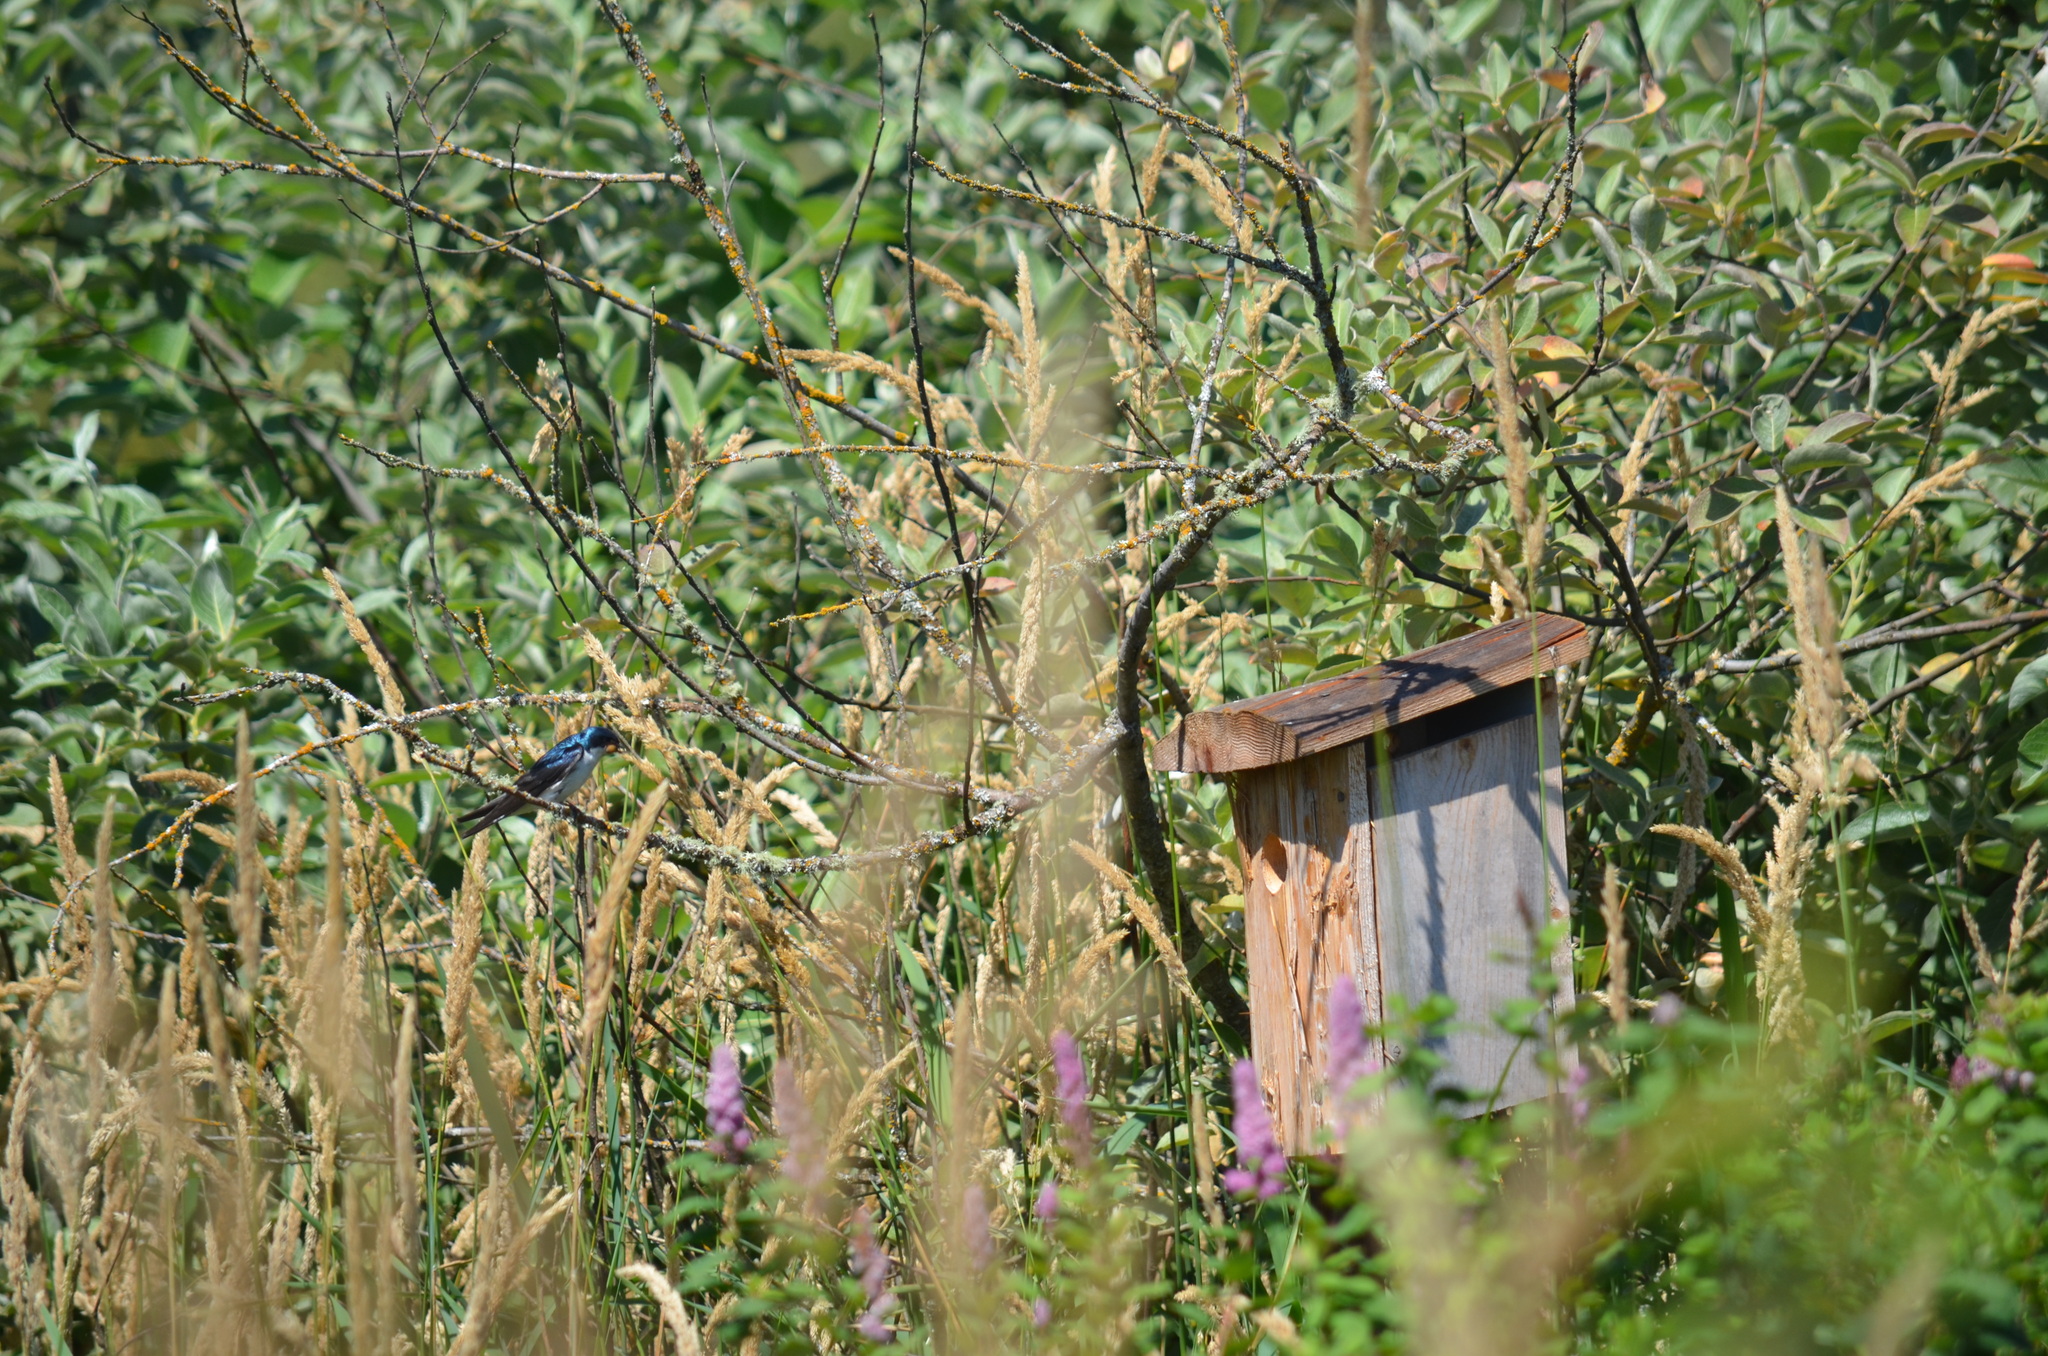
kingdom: Animalia
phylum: Chordata
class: Aves
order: Passeriformes
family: Hirundinidae
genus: Tachycineta
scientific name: Tachycineta bicolor
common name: Tree swallow
